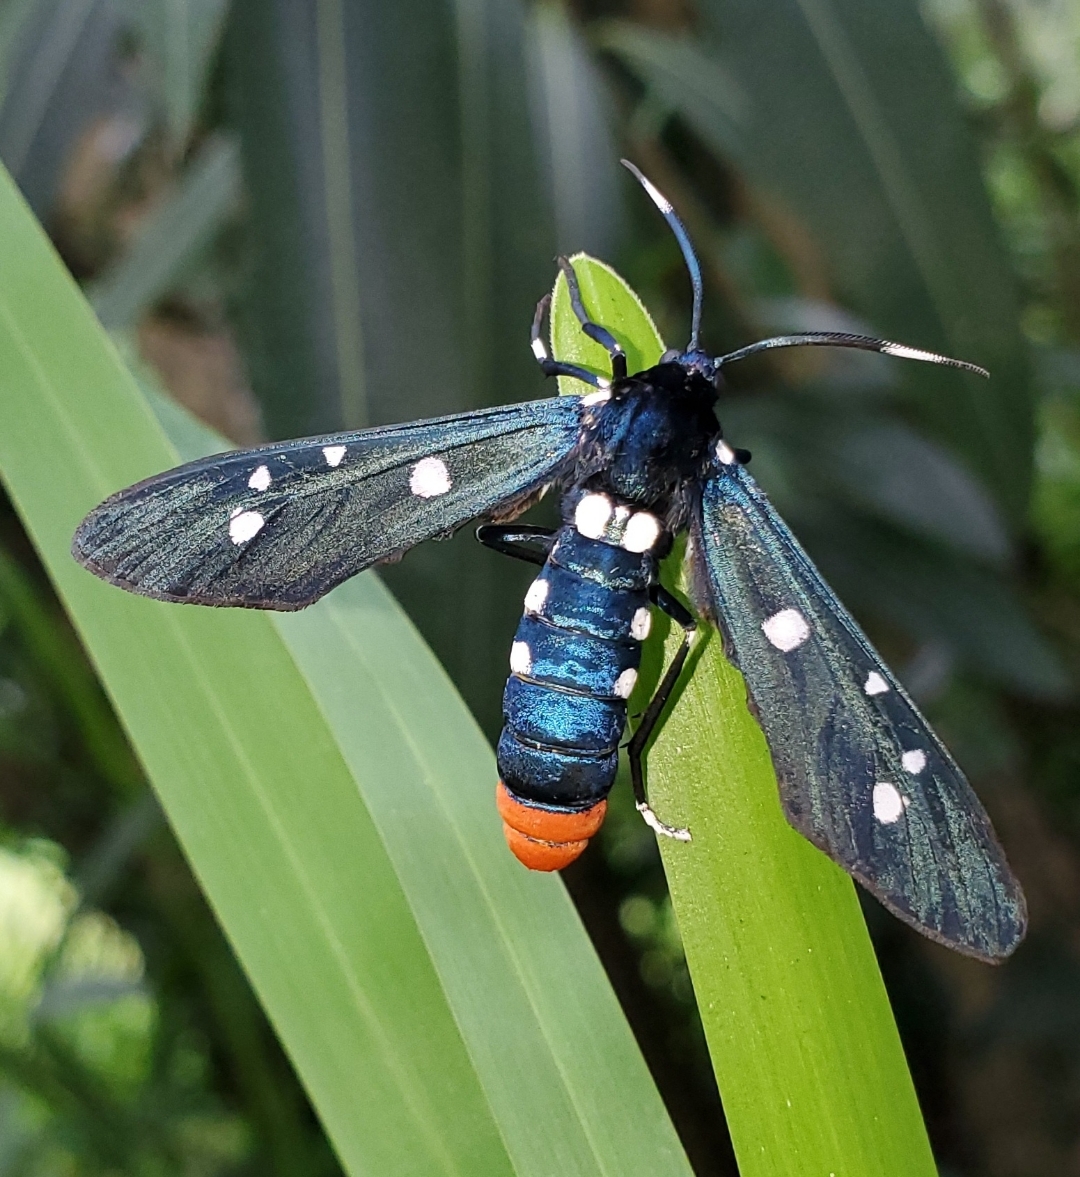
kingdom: Animalia
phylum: Arthropoda
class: Insecta
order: Lepidoptera
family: Erebidae
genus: Syntomeida
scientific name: Syntomeida epilais
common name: Polka-dot wasp moth
